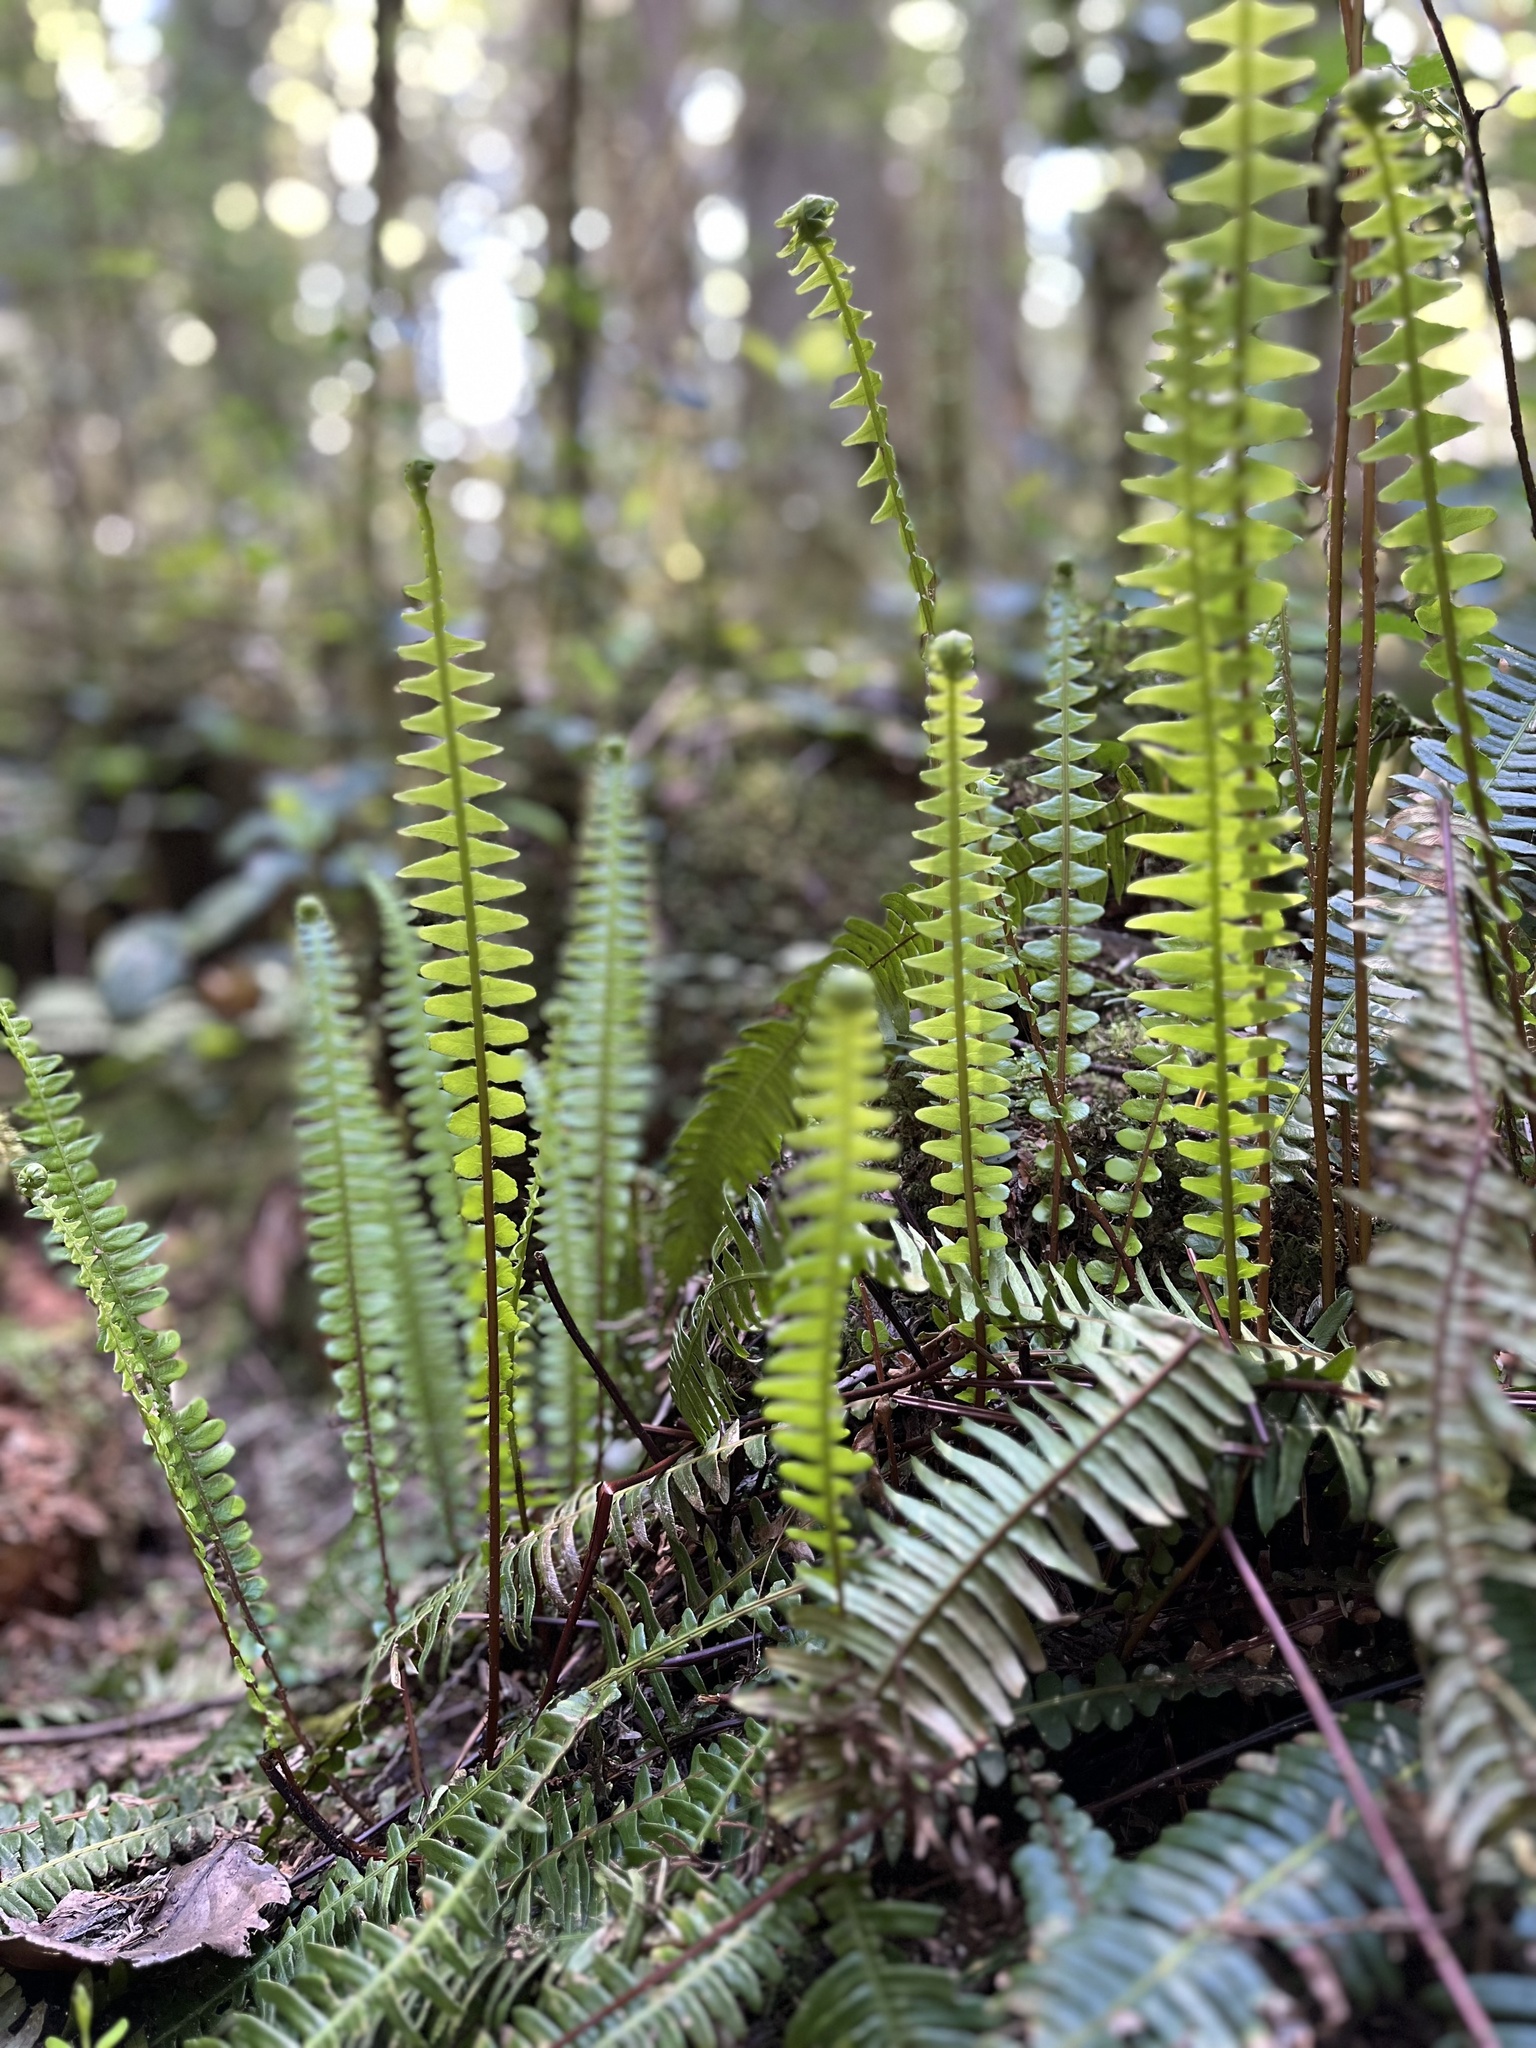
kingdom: Plantae
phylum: Tracheophyta
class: Polypodiopsida
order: Polypodiales
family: Blechnaceae
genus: Struthiopteris
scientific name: Struthiopteris spicant
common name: Deer fern
